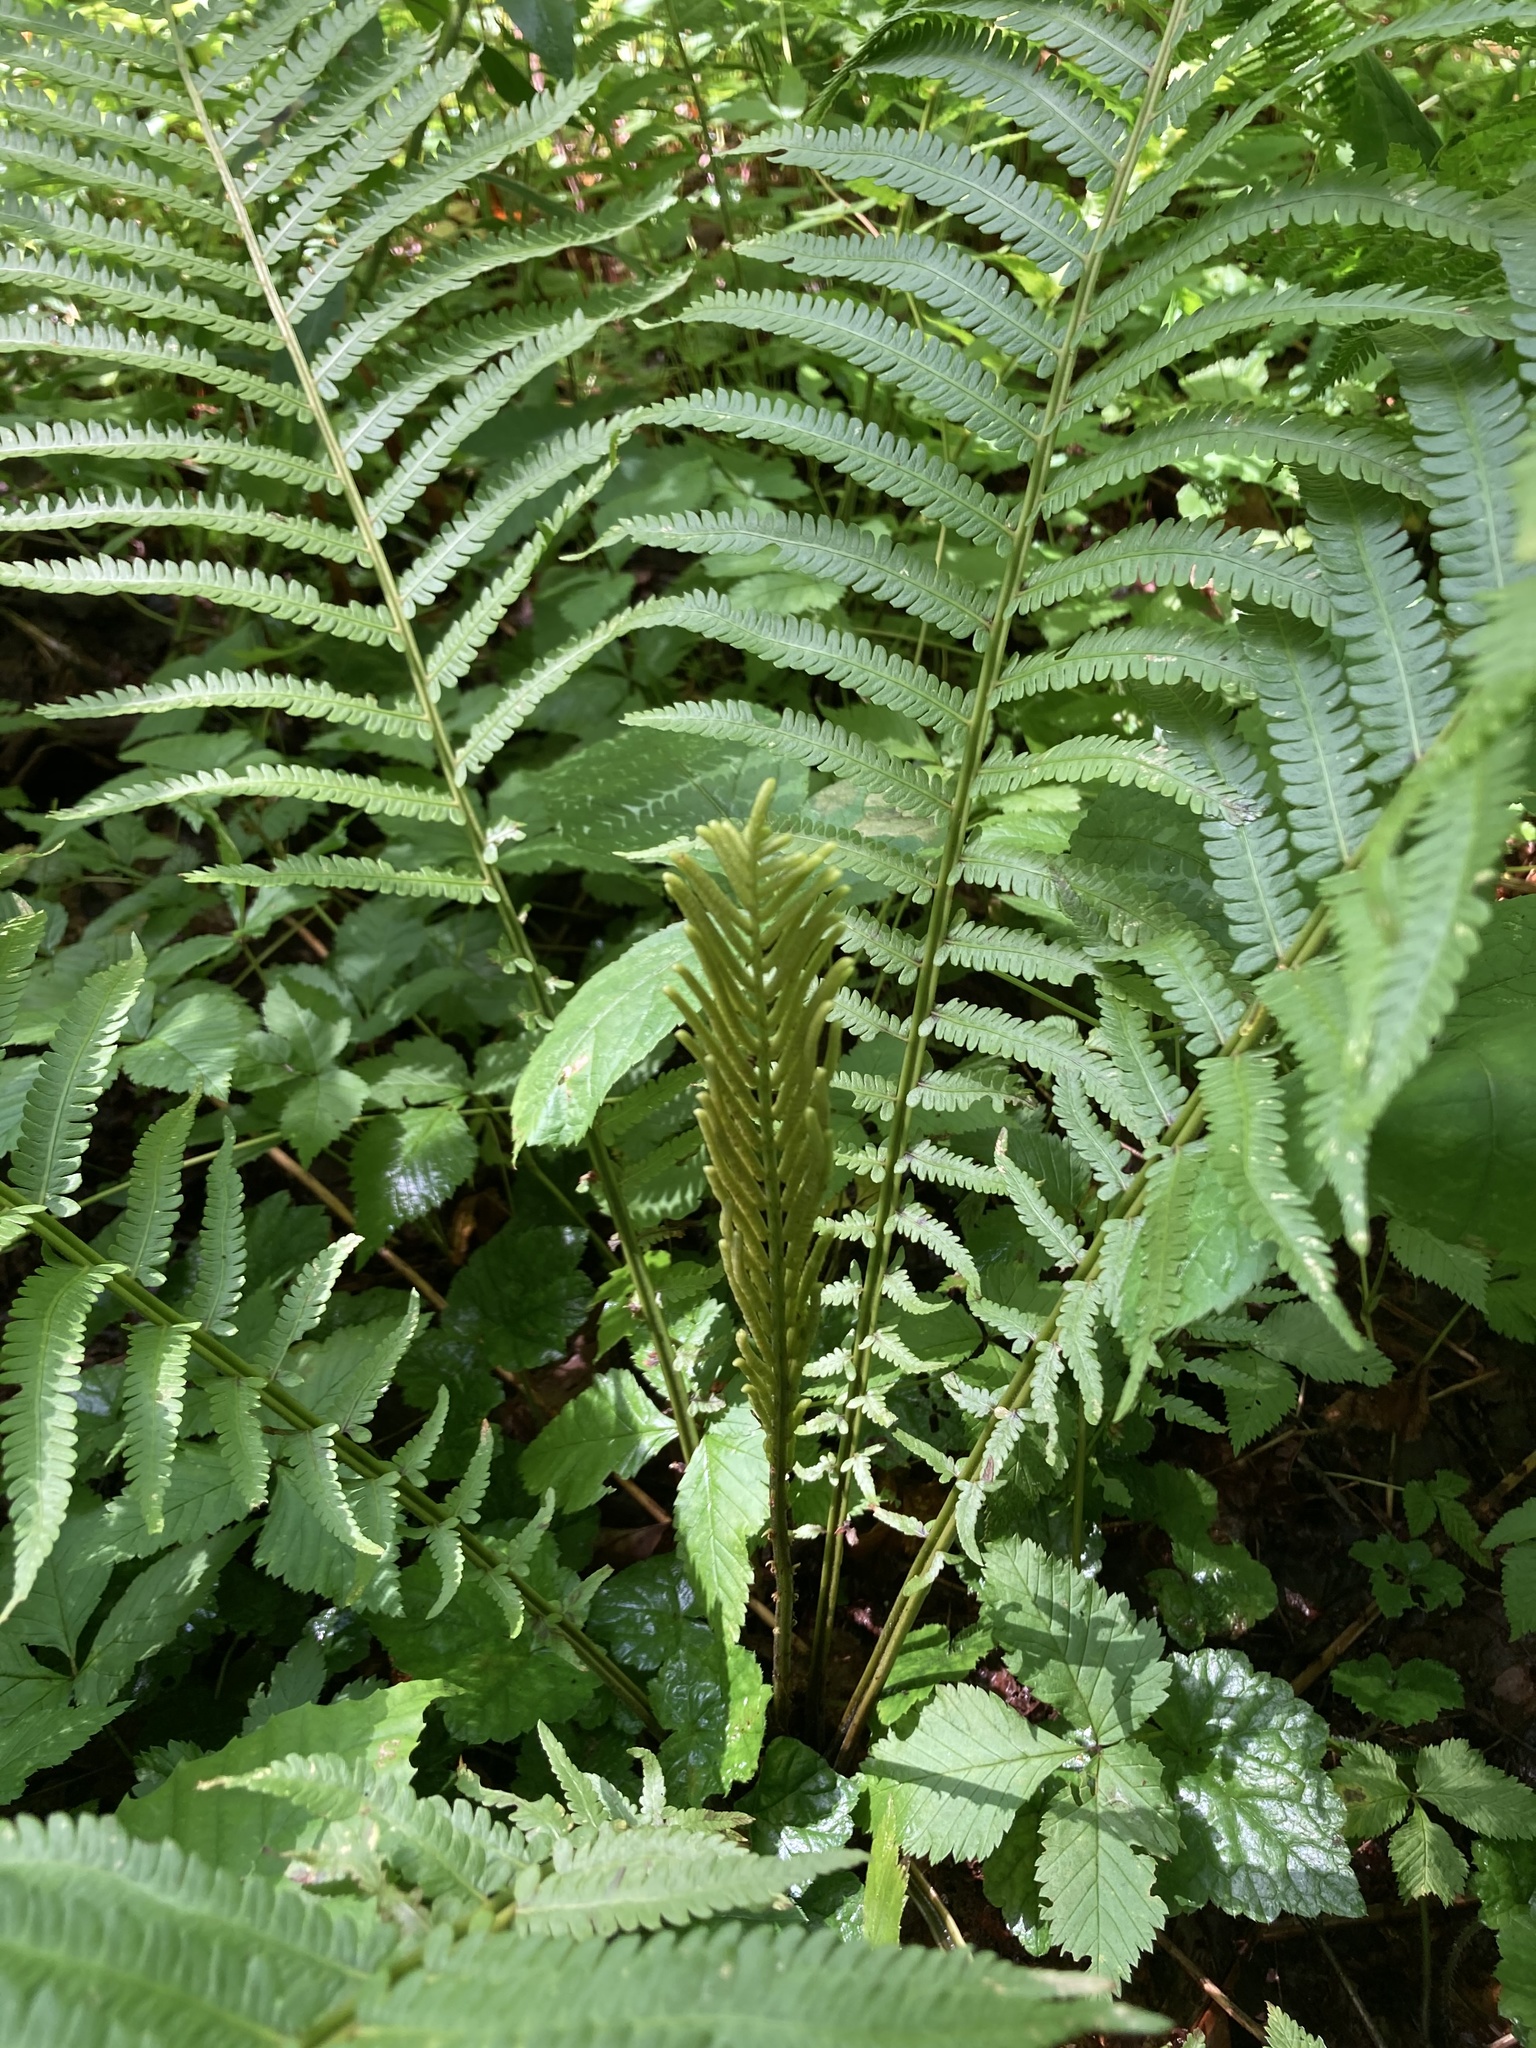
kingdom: Plantae
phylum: Tracheophyta
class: Polypodiopsida
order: Polypodiales
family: Onocleaceae
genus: Matteuccia
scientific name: Matteuccia struthiopteris
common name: Ostrich fern
